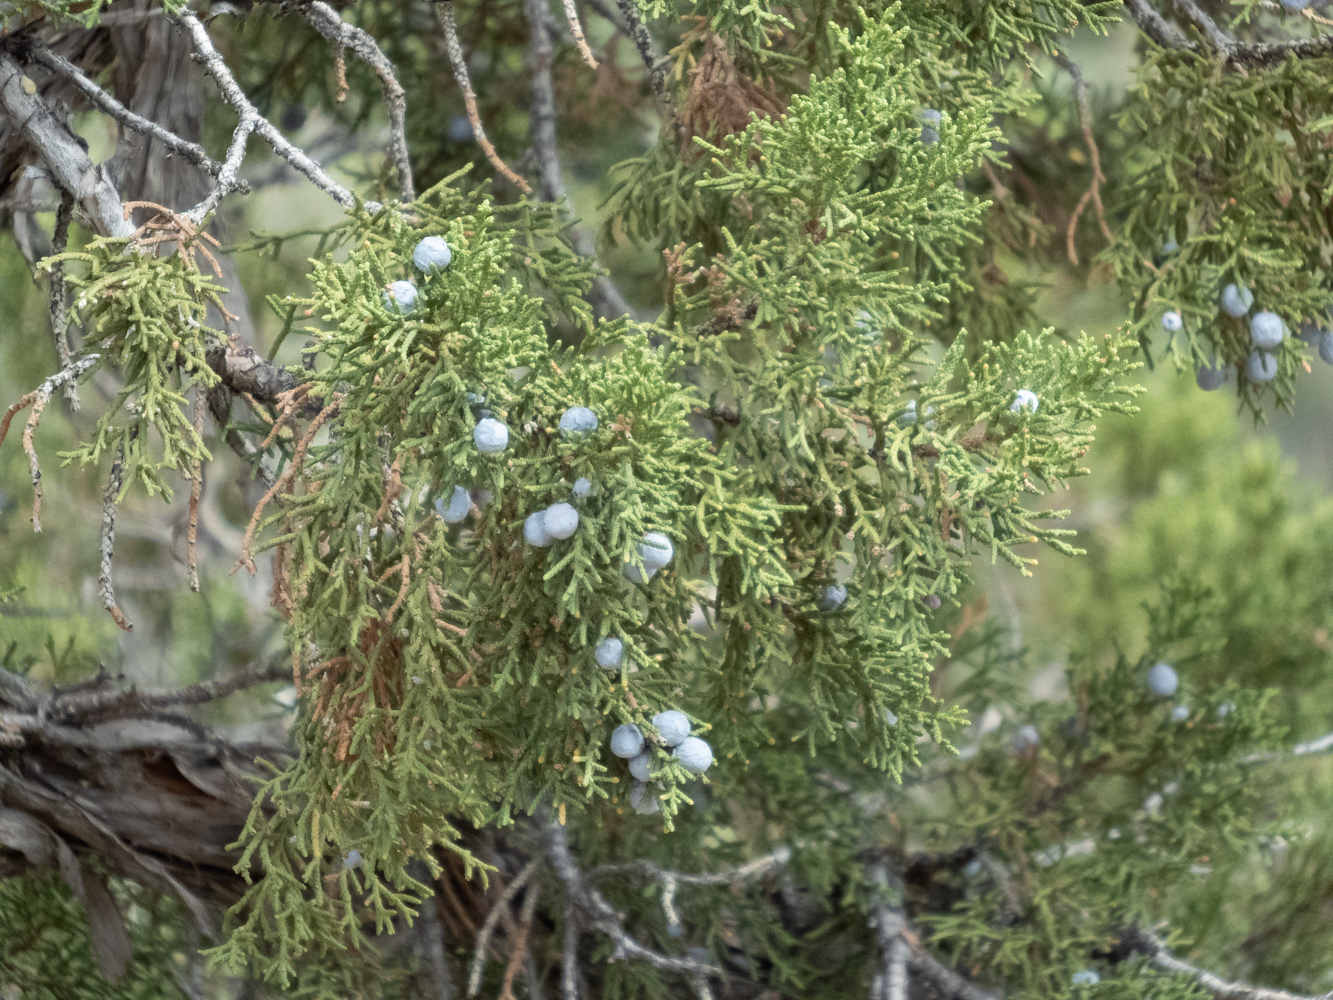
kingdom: Plantae
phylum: Tracheophyta
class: Pinopsida
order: Pinales
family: Cupressaceae
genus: Juniperus
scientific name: Juniperus osteosperma
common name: Utah juniper
